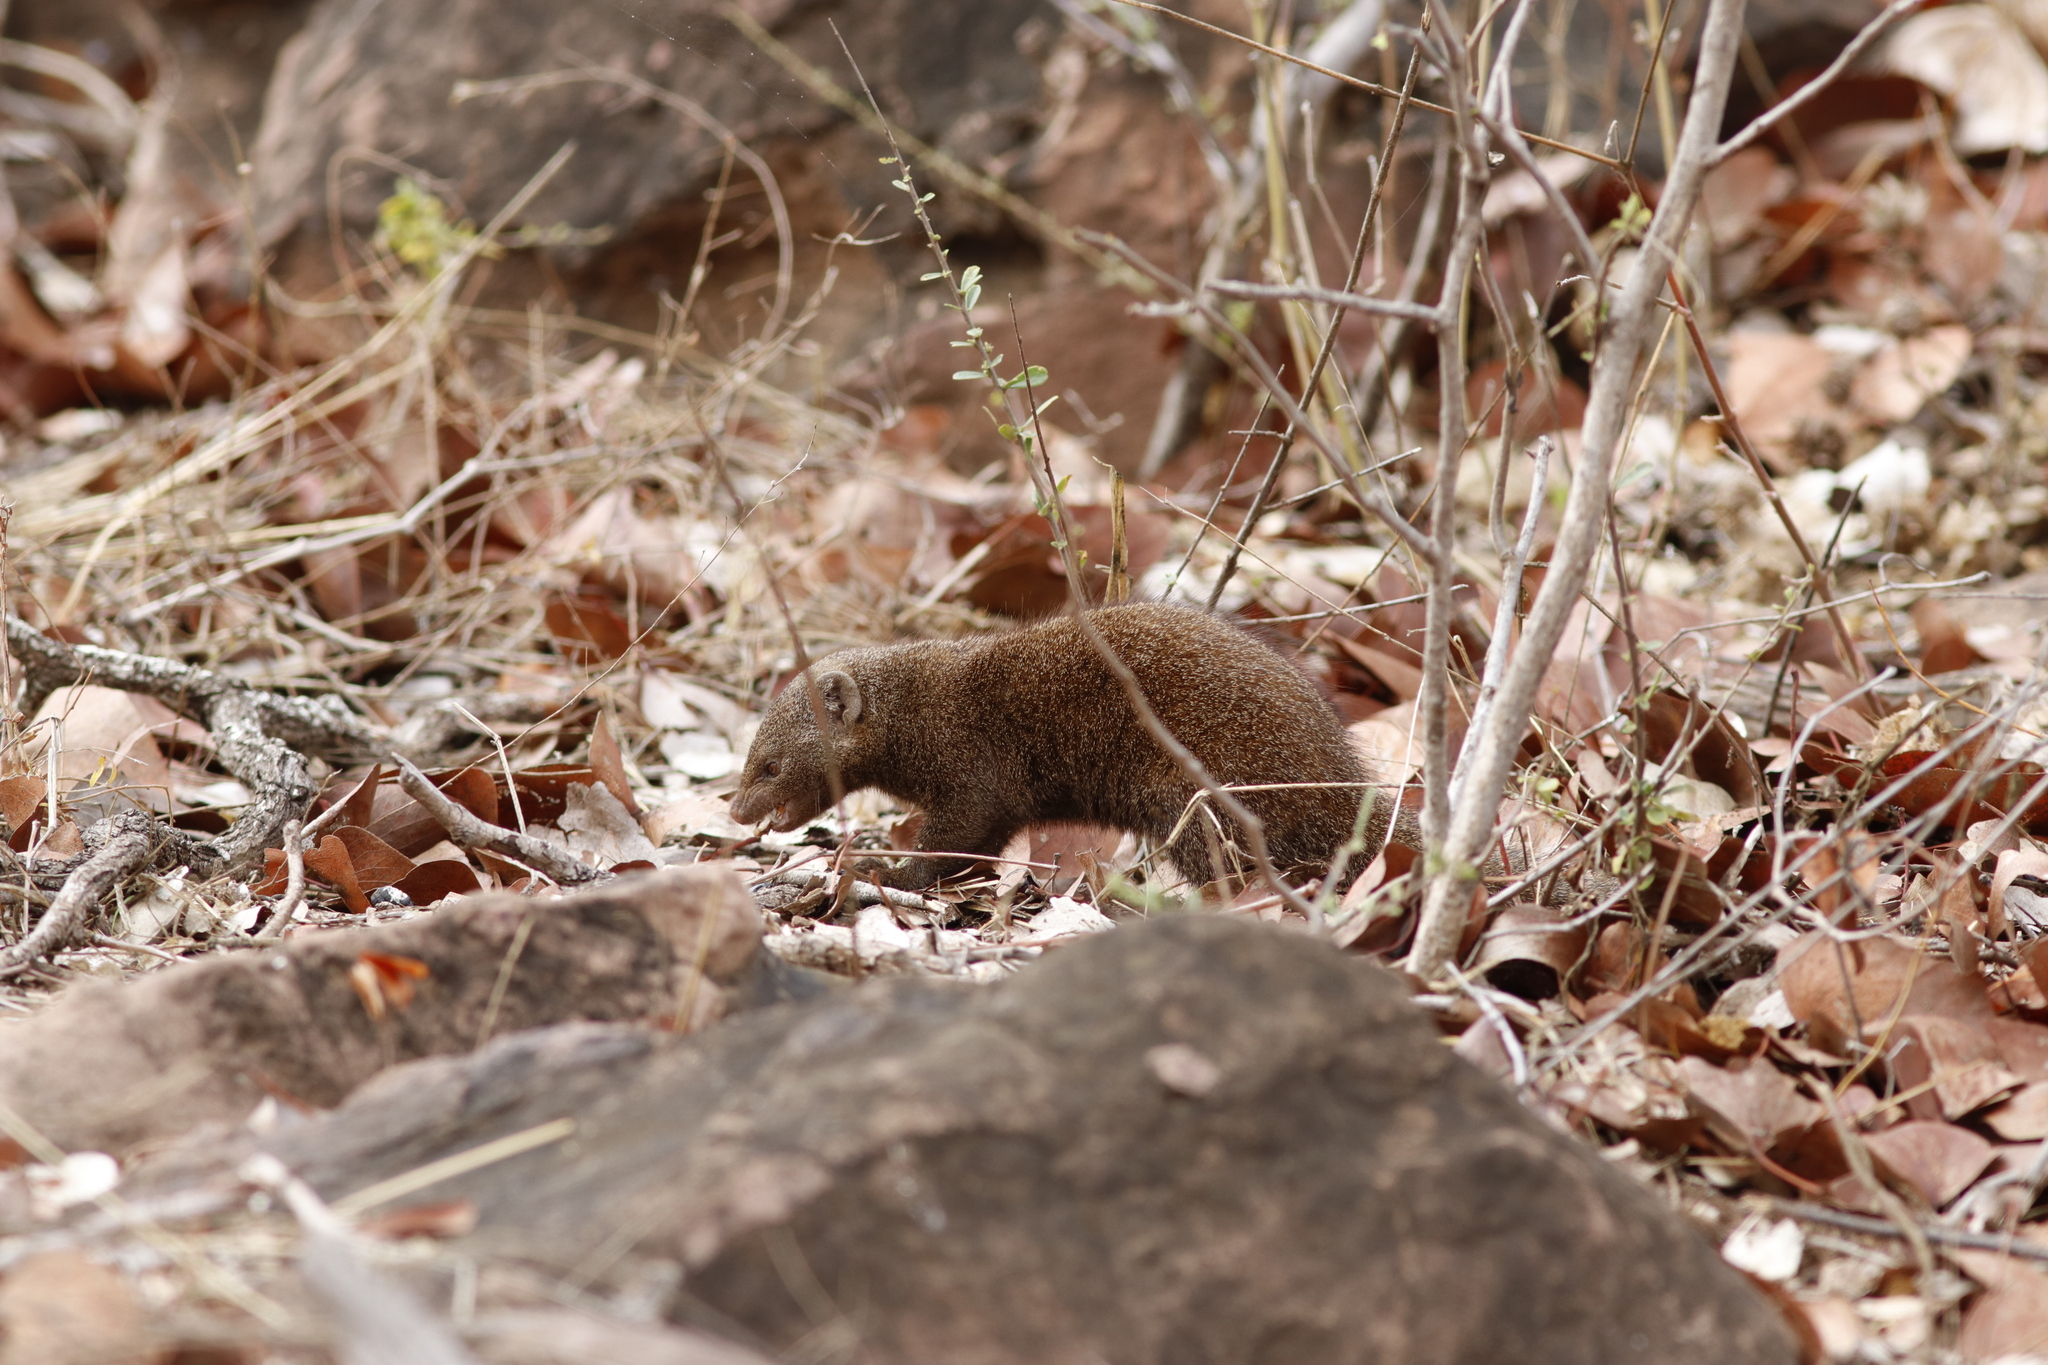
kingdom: Animalia
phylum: Chordata
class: Mammalia
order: Carnivora
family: Herpestidae
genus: Helogale
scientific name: Helogale parvula
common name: Common dwarf mongoose
